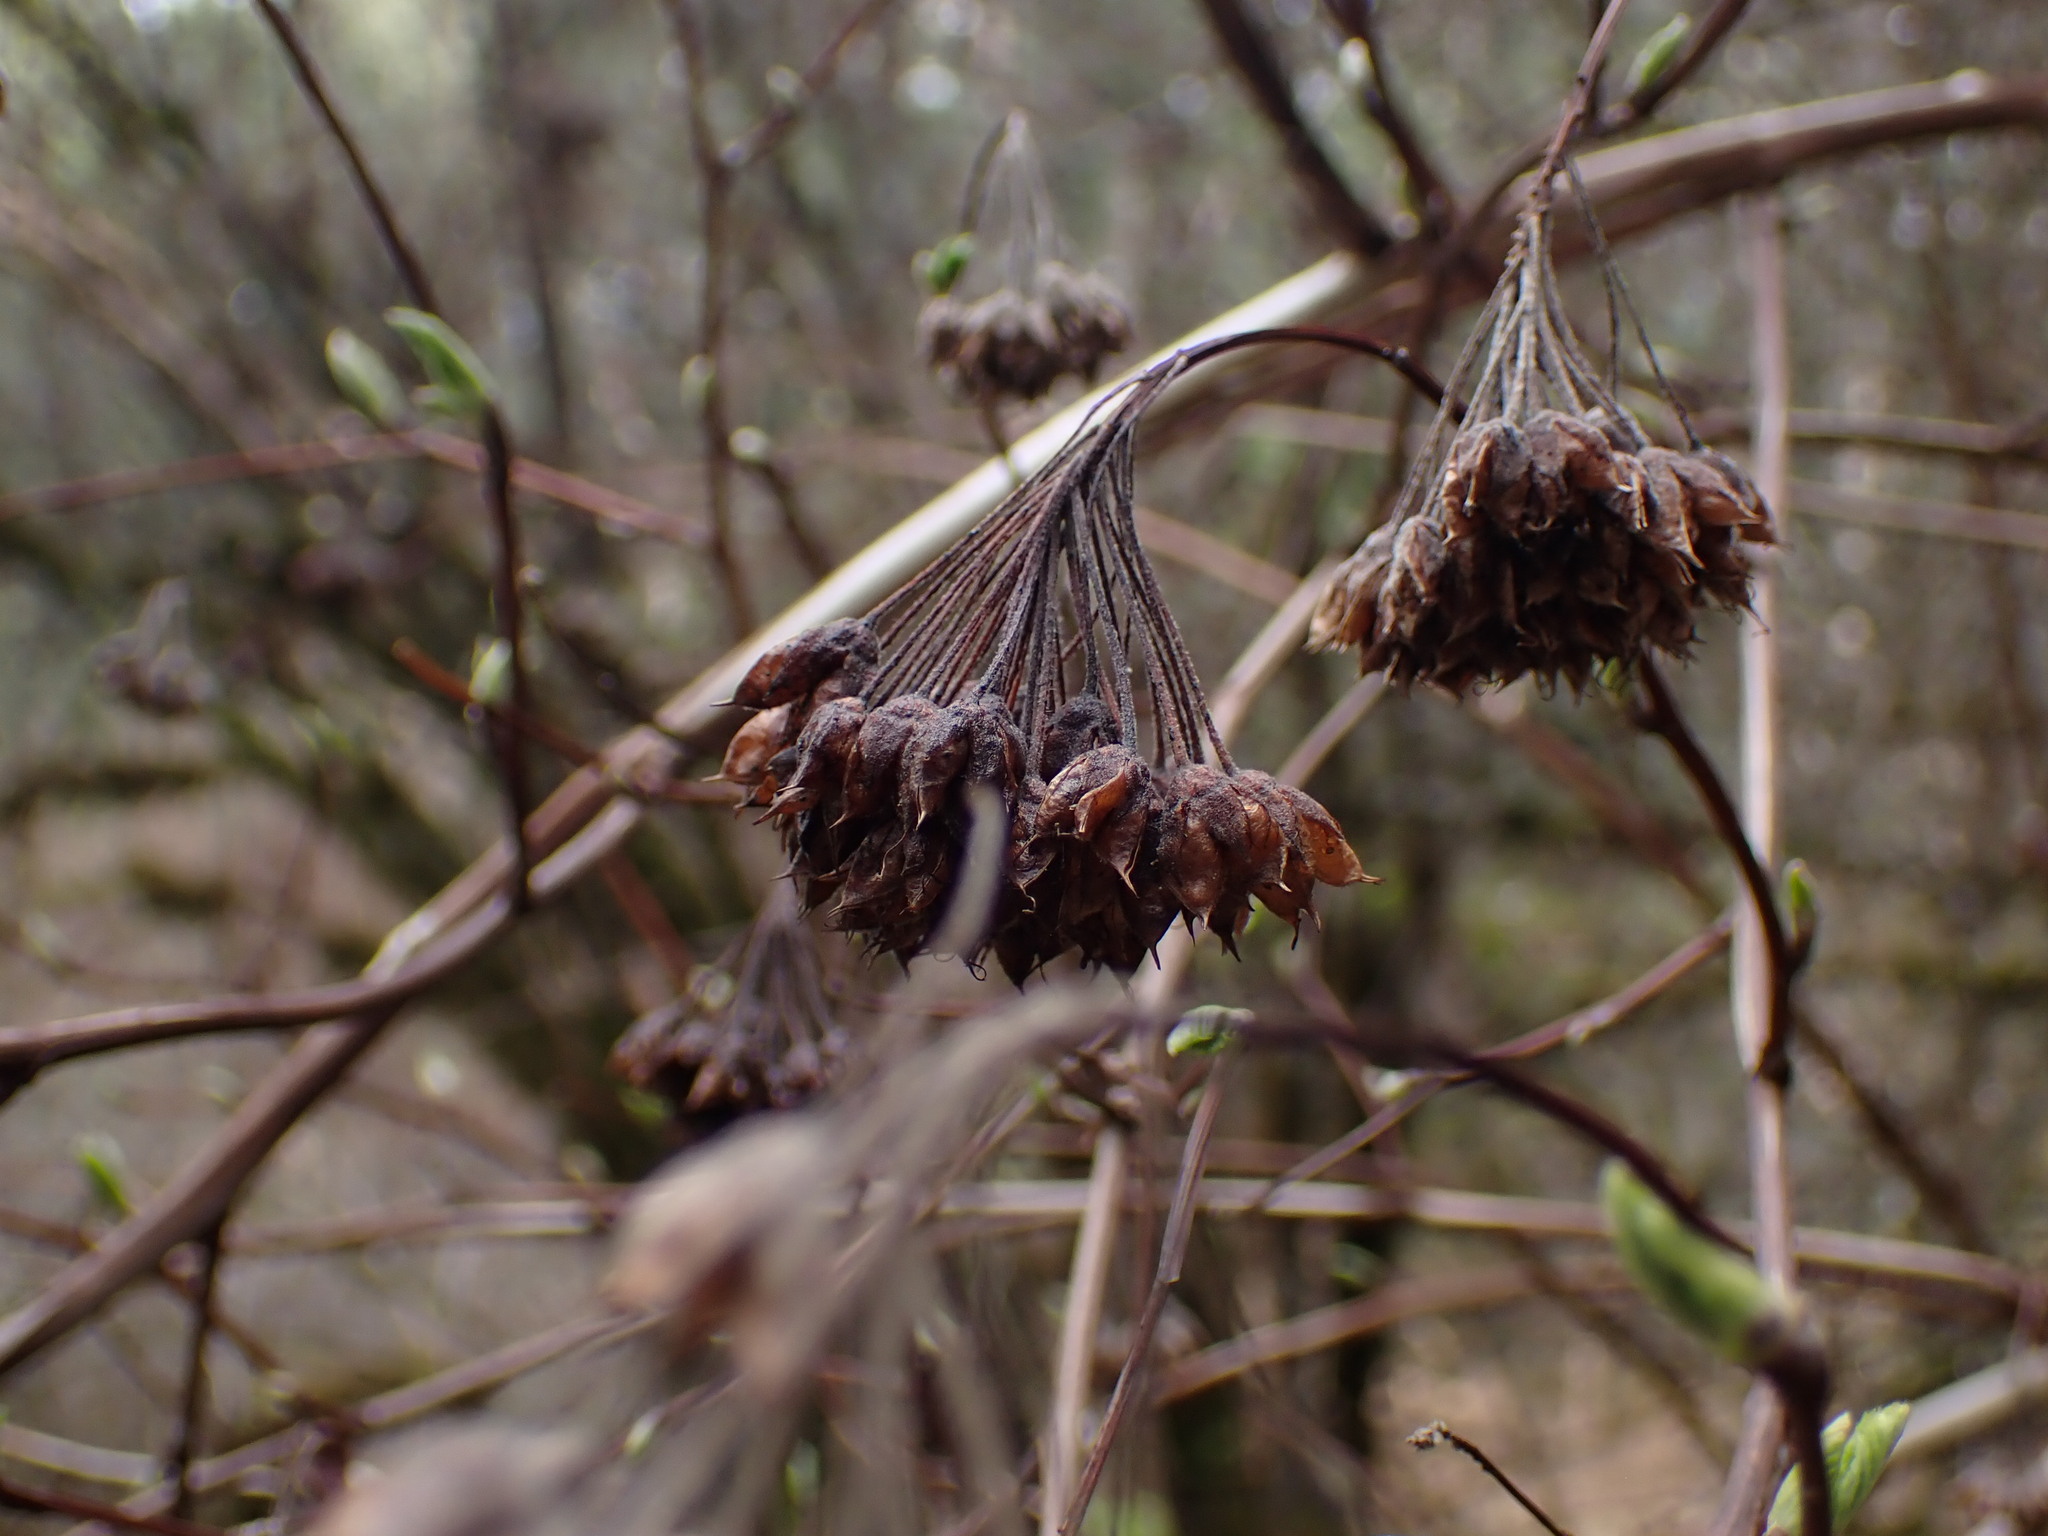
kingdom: Plantae
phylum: Tracheophyta
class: Magnoliopsida
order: Rosales
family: Rosaceae
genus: Physocarpus
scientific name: Physocarpus capitatus
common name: Pacific ninebark
